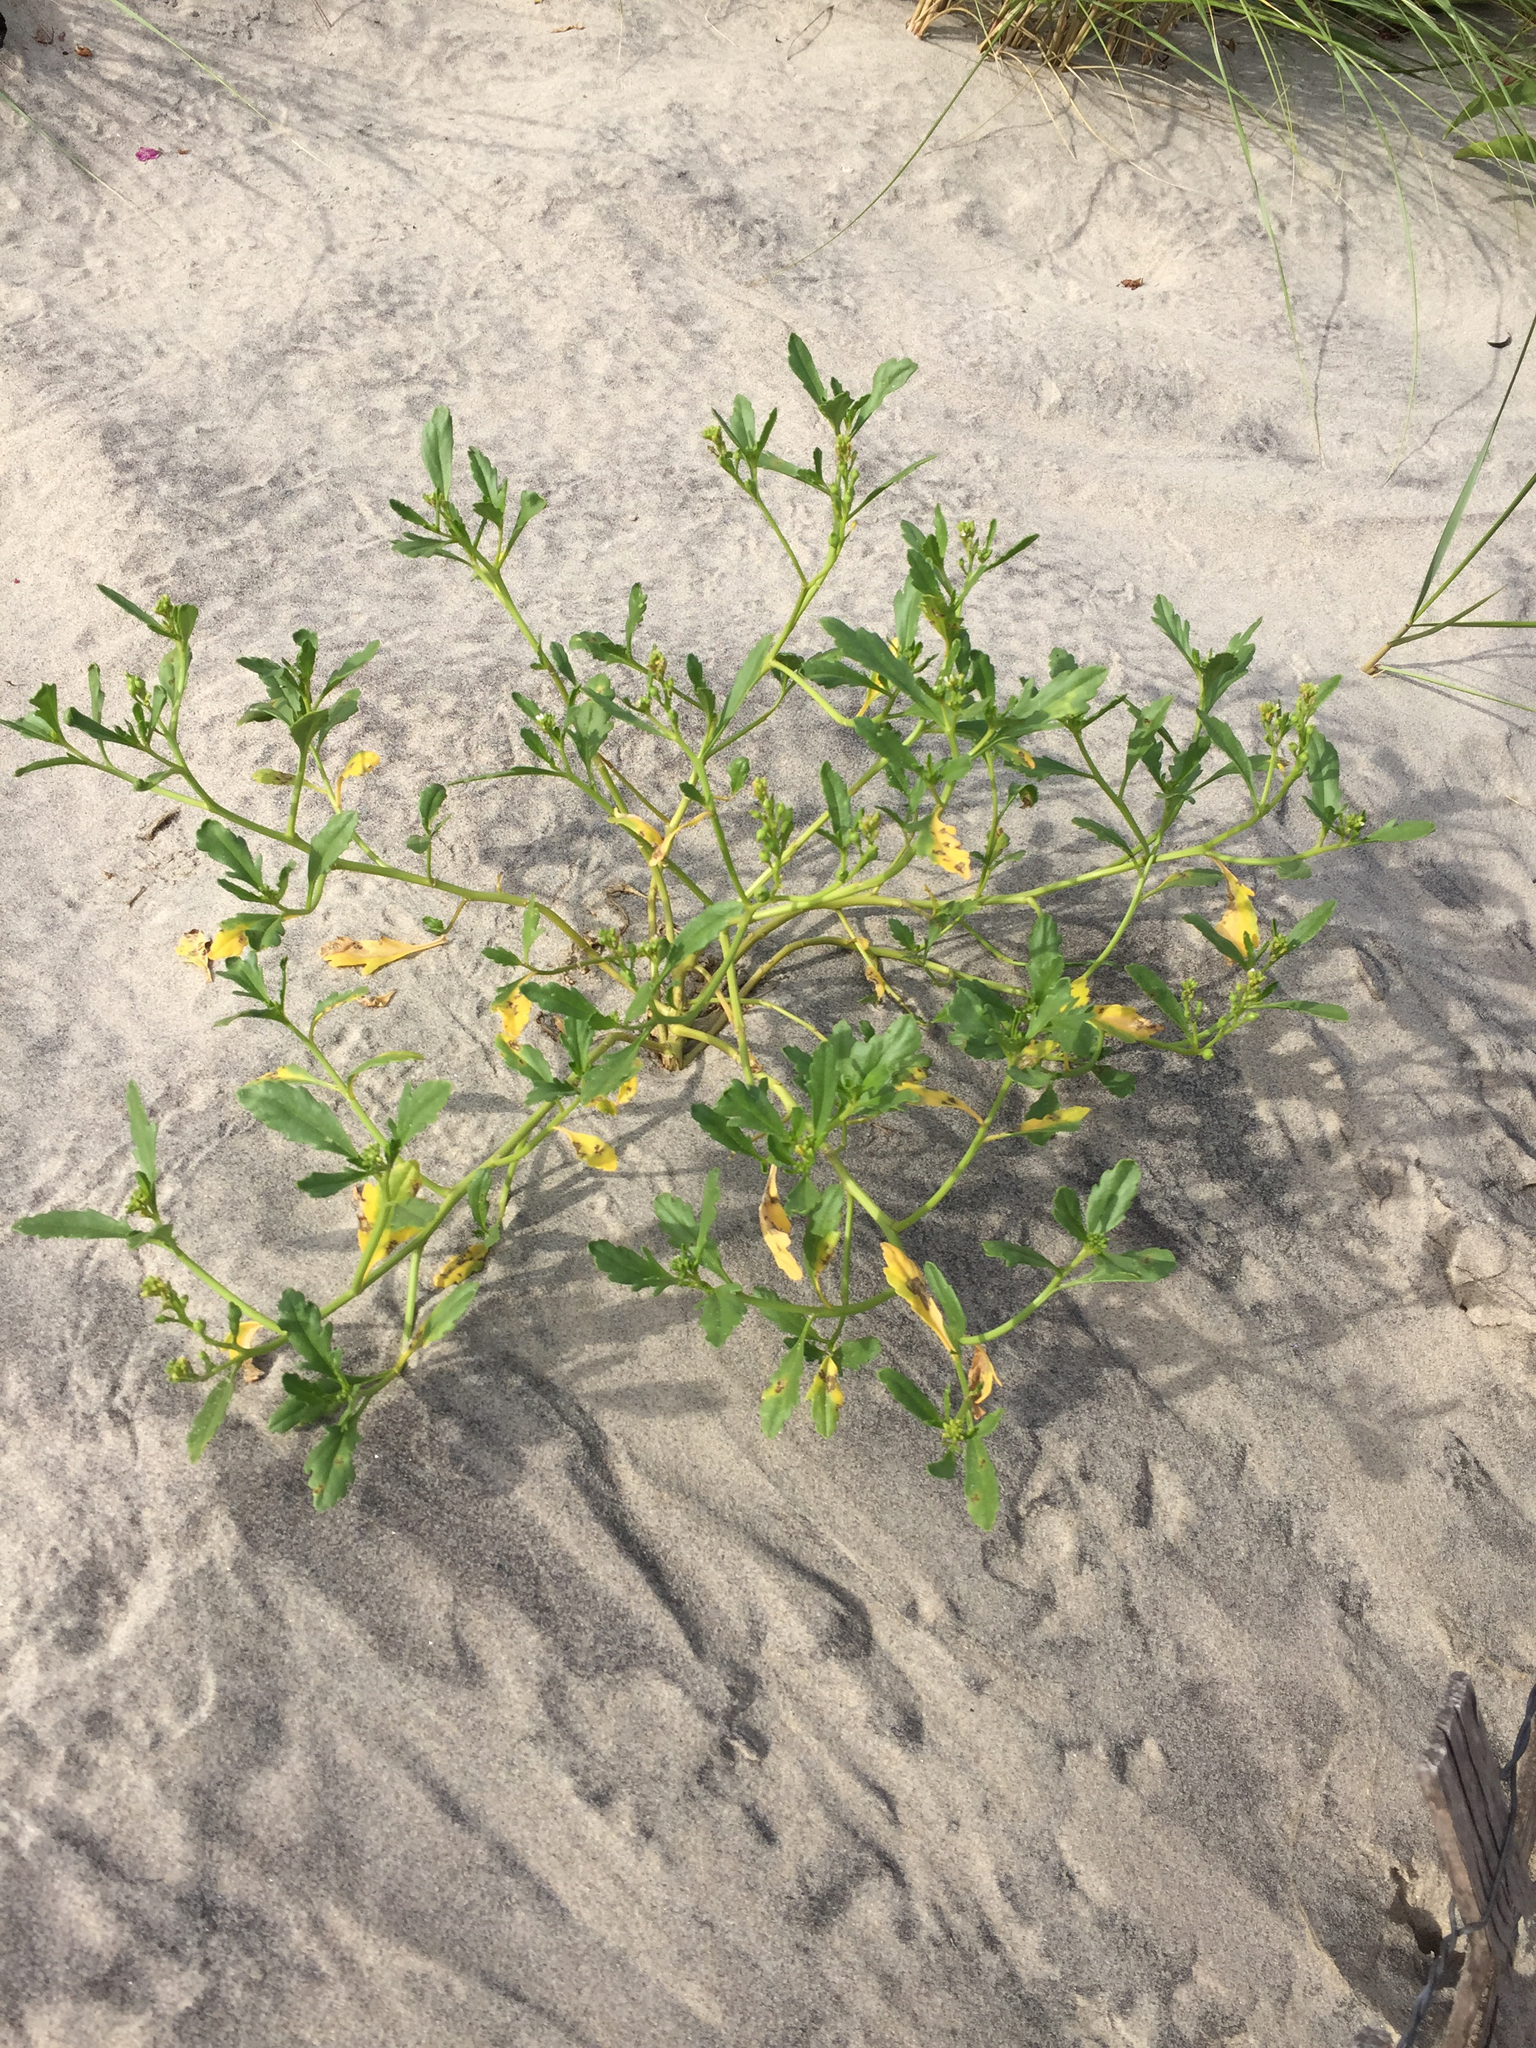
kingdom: Plantae
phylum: Tracheophyta
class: Magnoliopsida
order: Brassicales
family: Brassicaceae
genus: Cakile
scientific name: Cakile edentula
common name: American sea rocket
